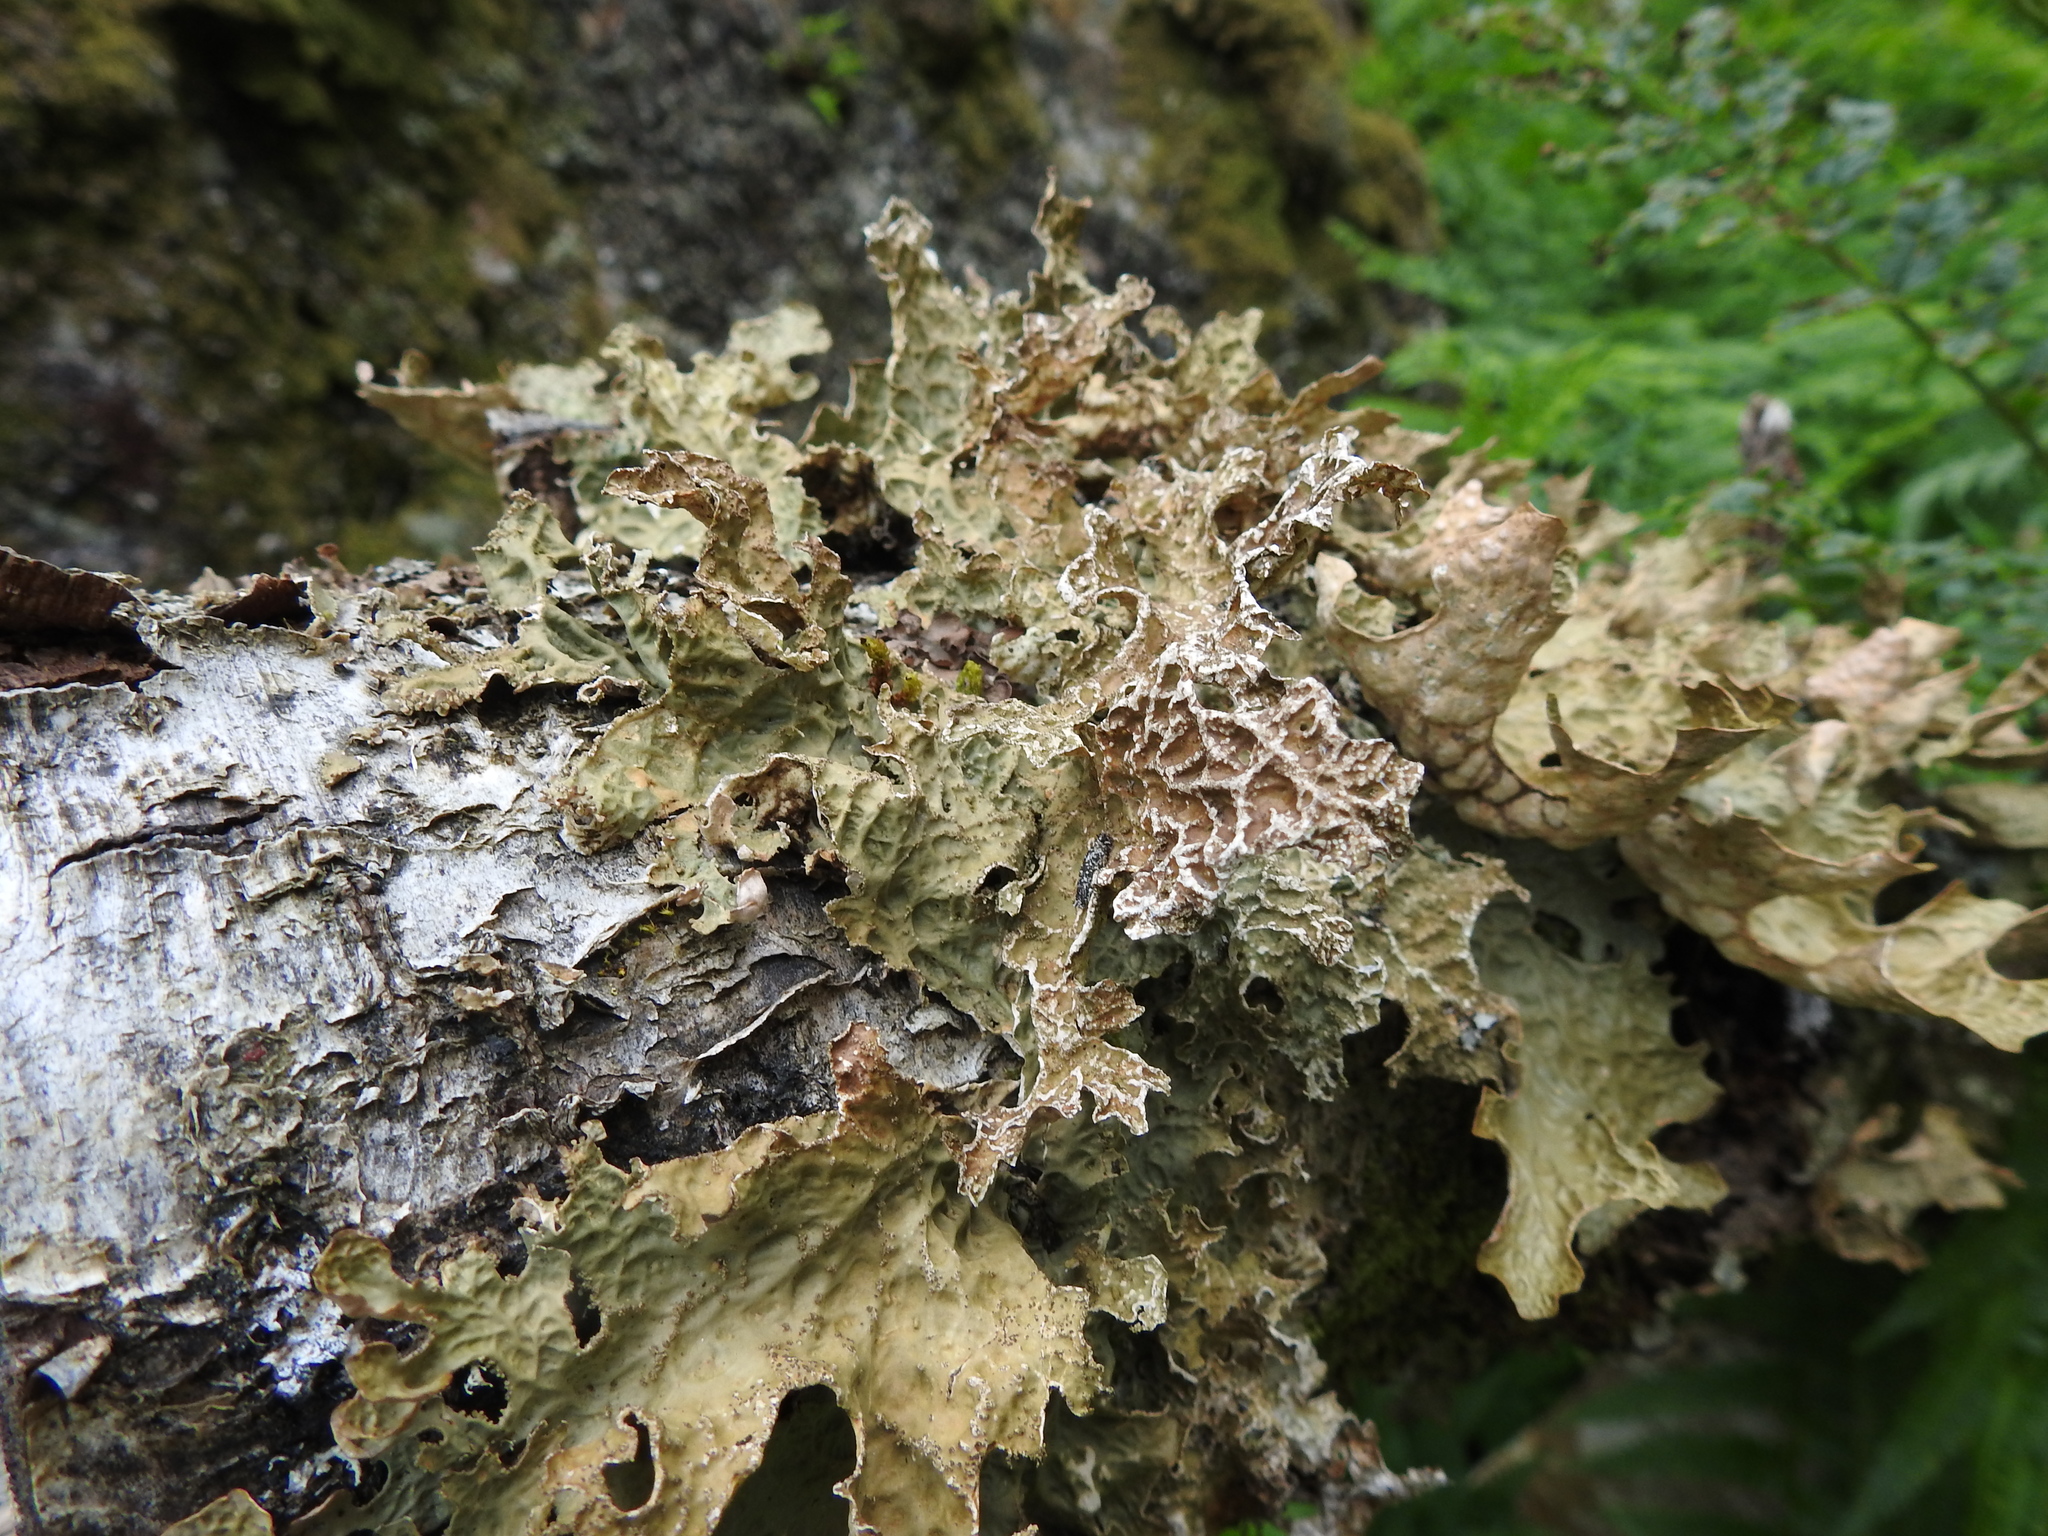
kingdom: Fungi
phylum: Ascomycota
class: Lecanoromycetes
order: Peltigerales
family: Lobariaceae
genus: Lobaria
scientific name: Lobaria pulmonaria
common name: Lungwort
